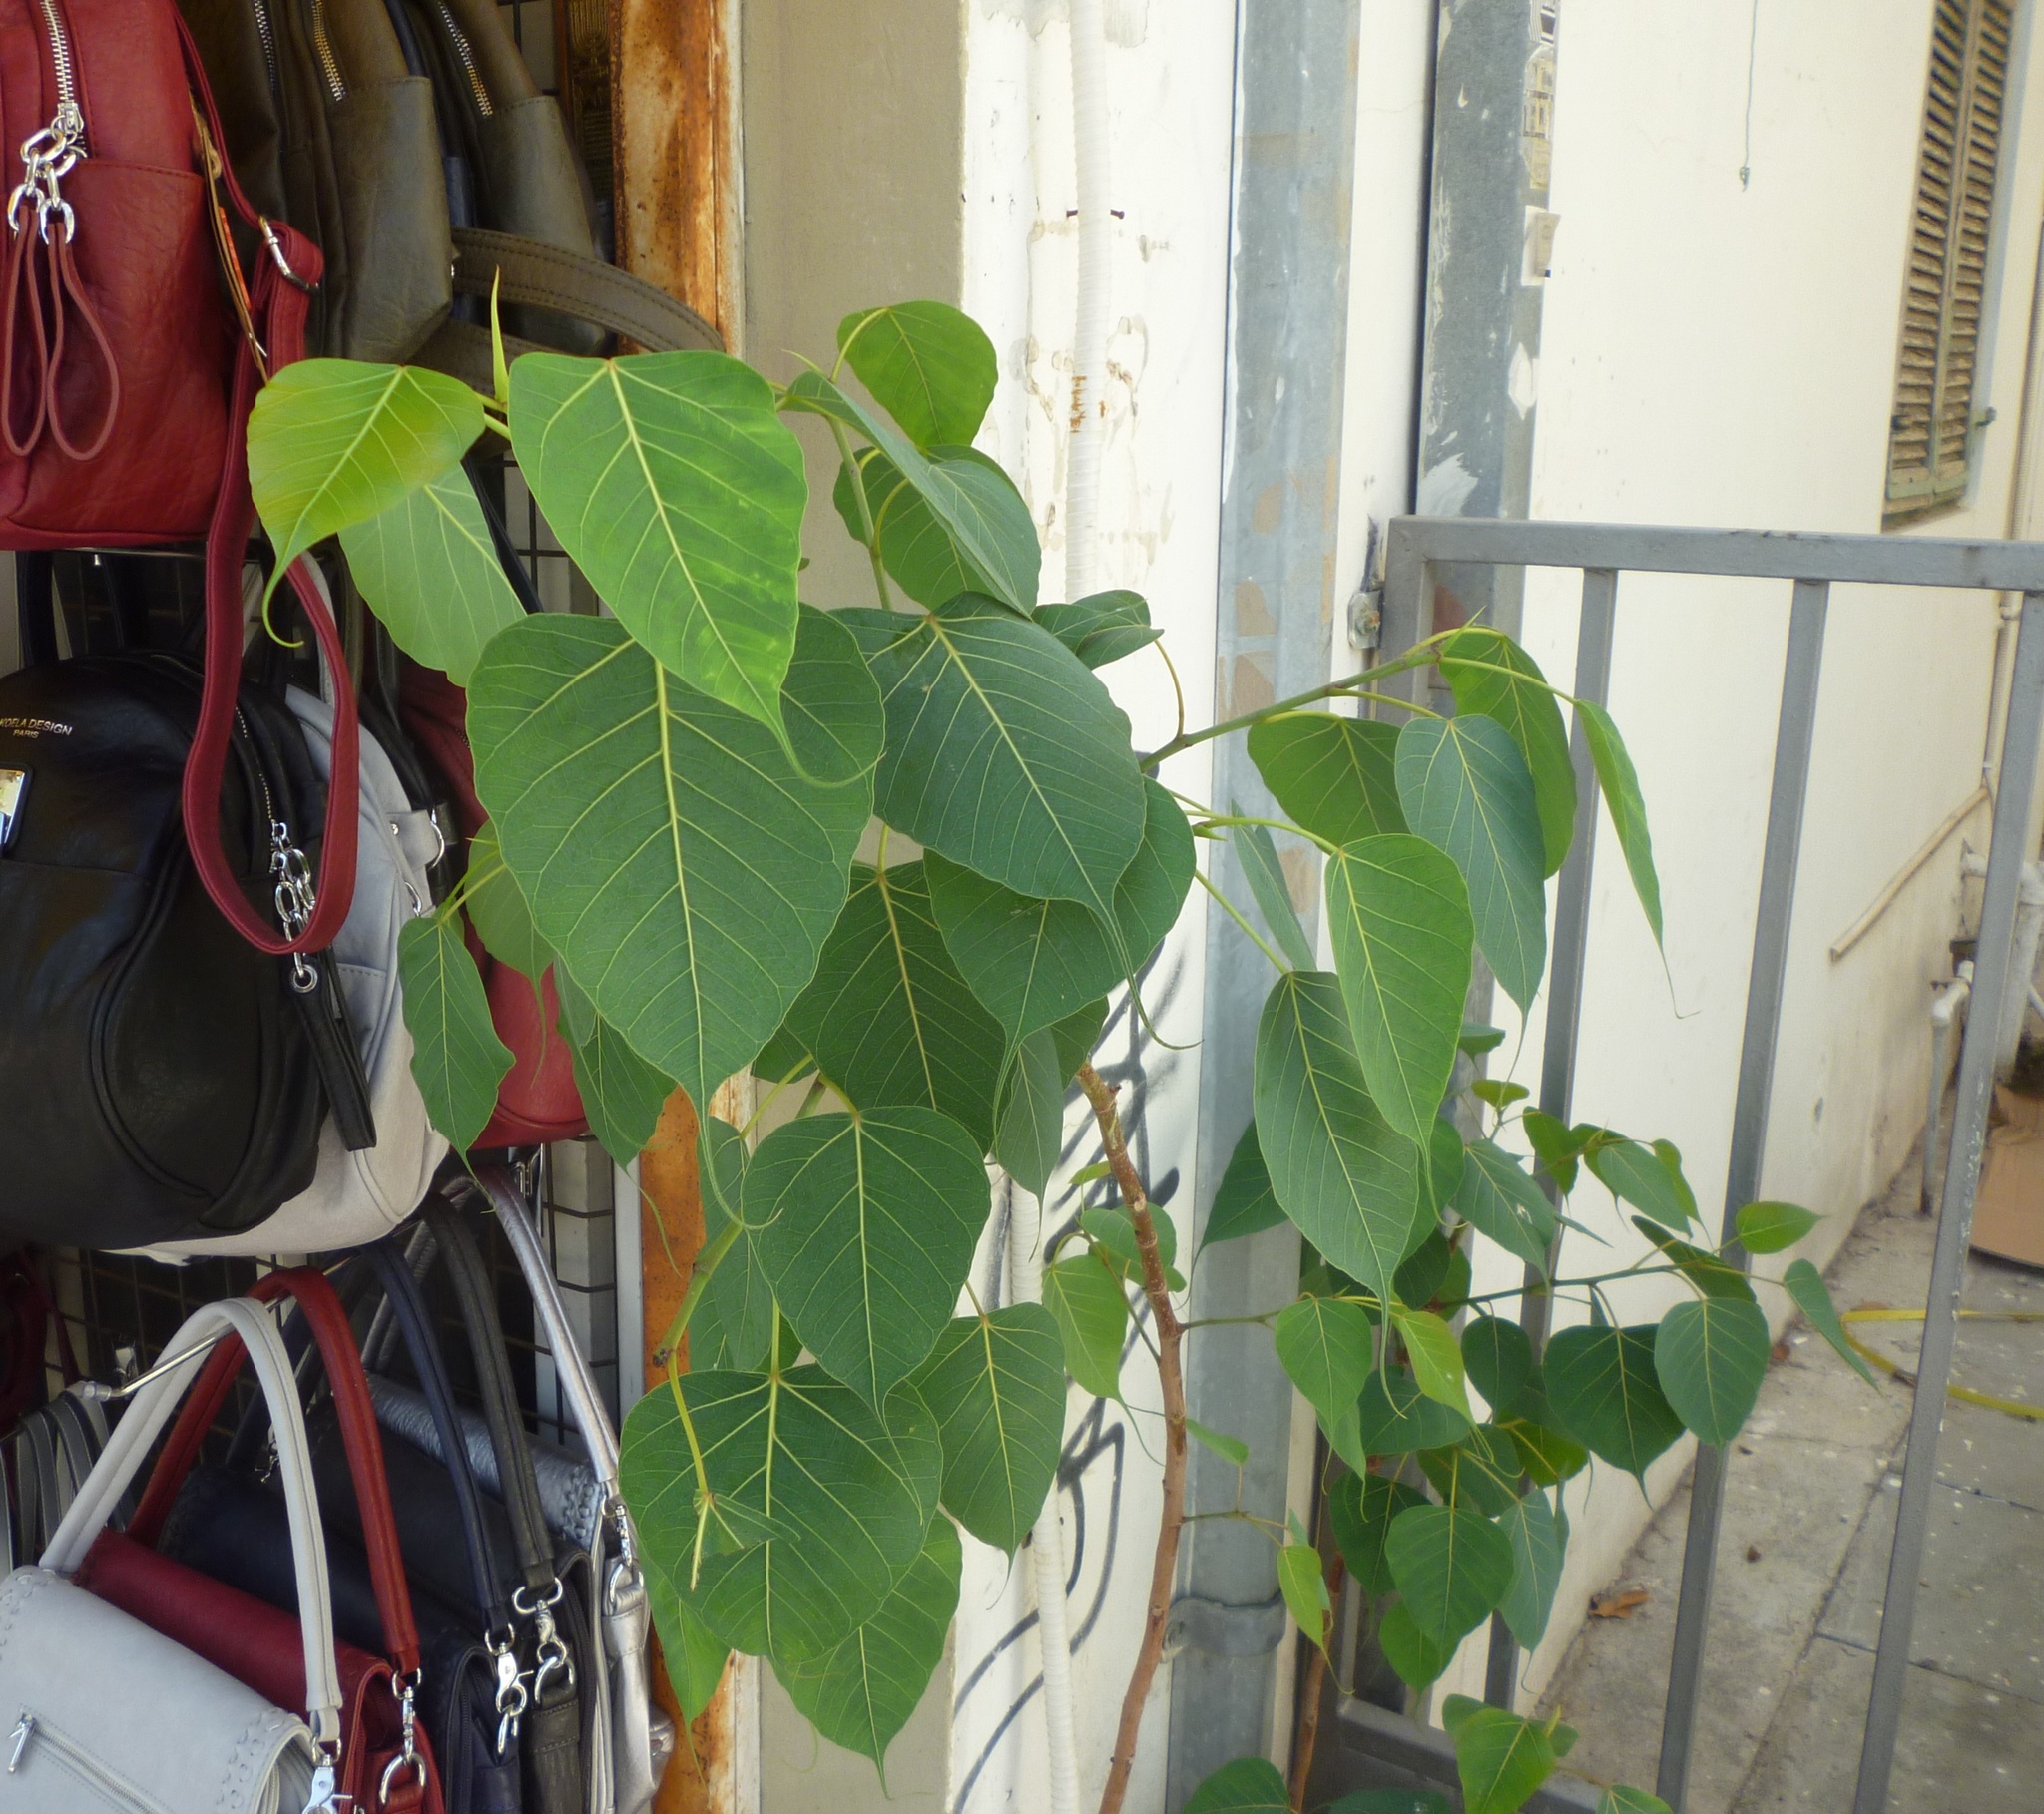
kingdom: Plantae
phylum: Tracheophyta
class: Magnoliopsida
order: Rosales
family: Moraceae
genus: Ficus
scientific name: Ficus religiosa
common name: Bodhi tree
